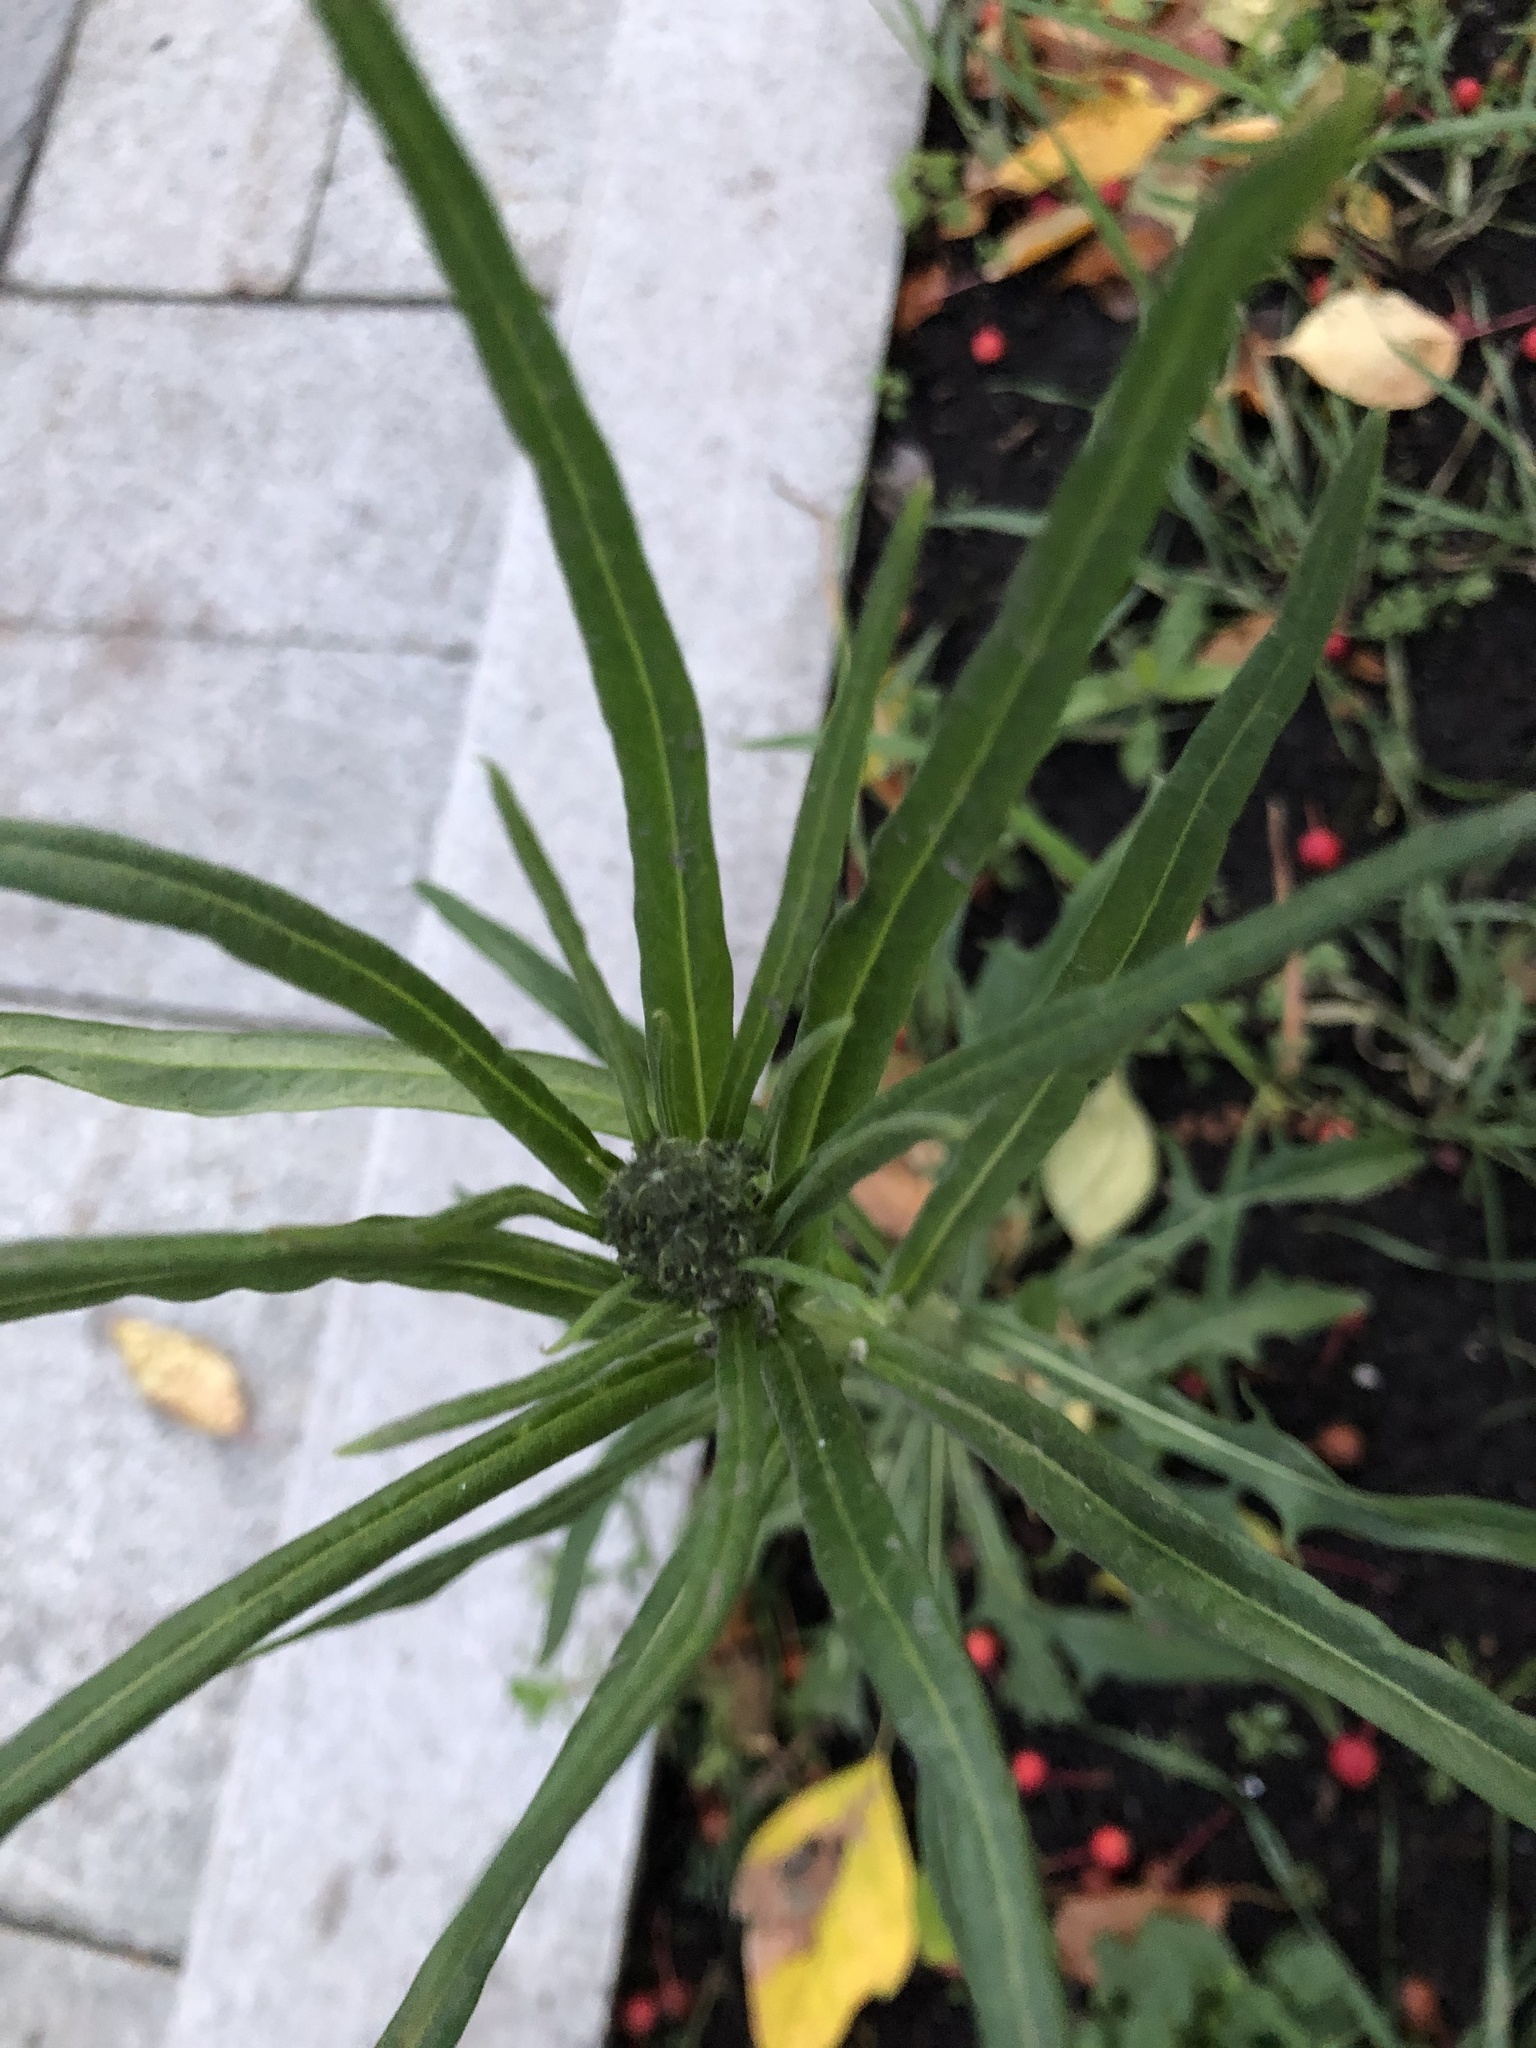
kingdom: Plantae
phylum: Tracheophyta
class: Magnoliopsida
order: Asterales
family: Asteraceae
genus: Crepis
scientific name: Crepis tectorum
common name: Narrow-leaved hawk's-beard
